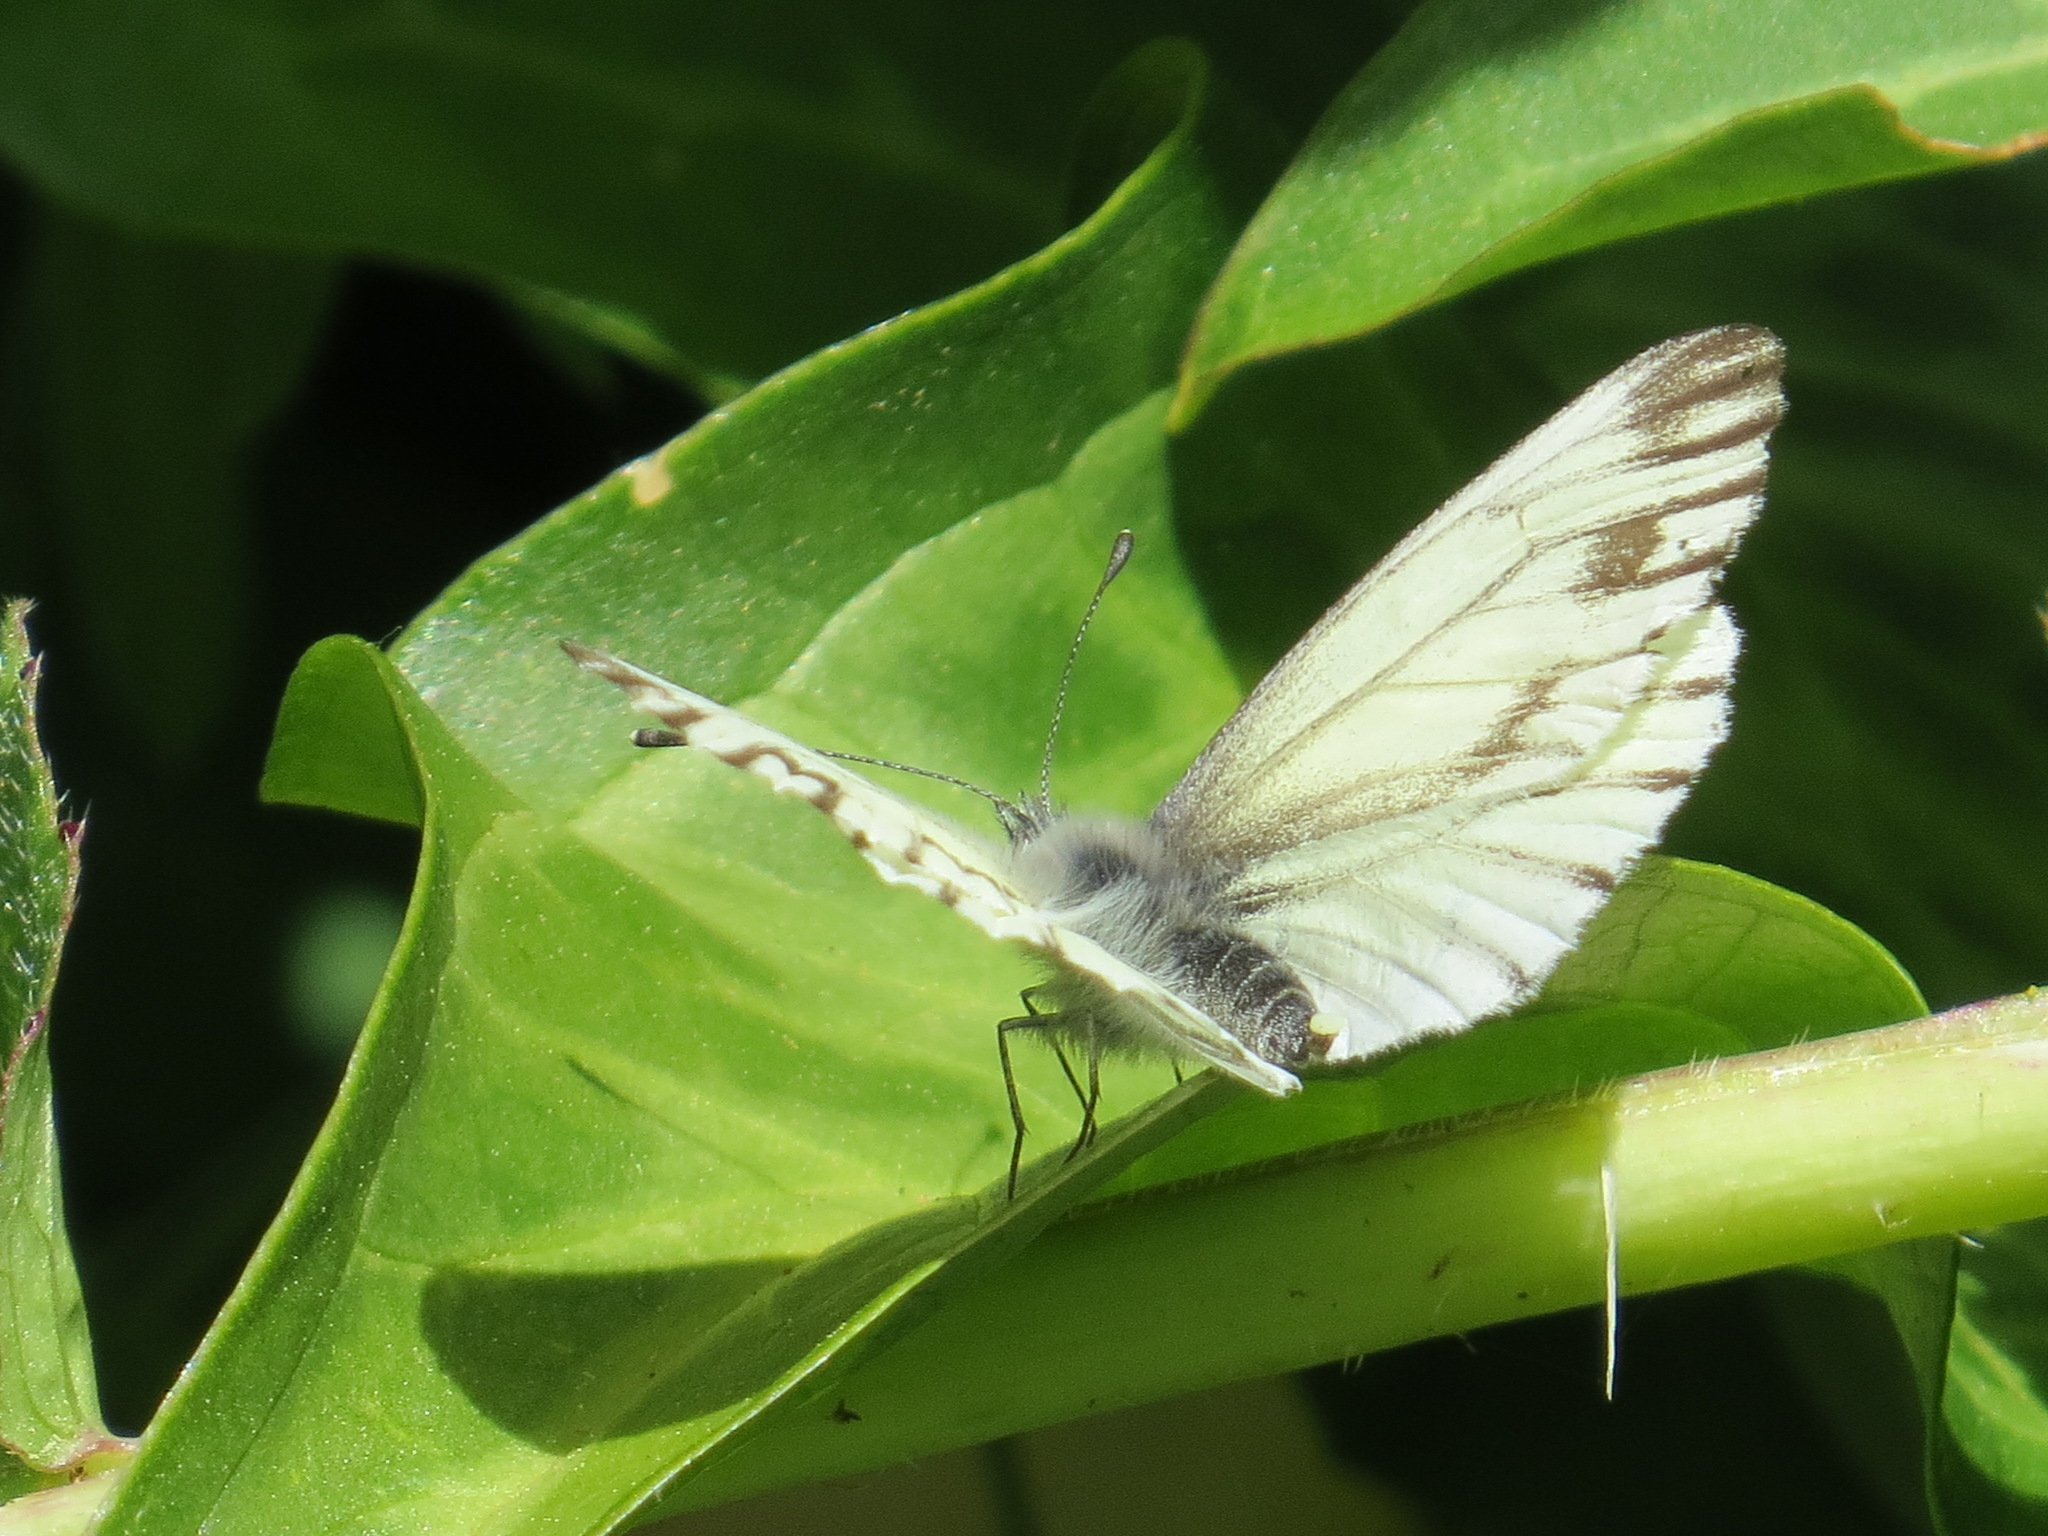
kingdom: Animalia
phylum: Arthropoda
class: Insecta
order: Lepidoptera
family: Pieridae
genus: Pieris
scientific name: Pieris marginalis
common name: Margined white
